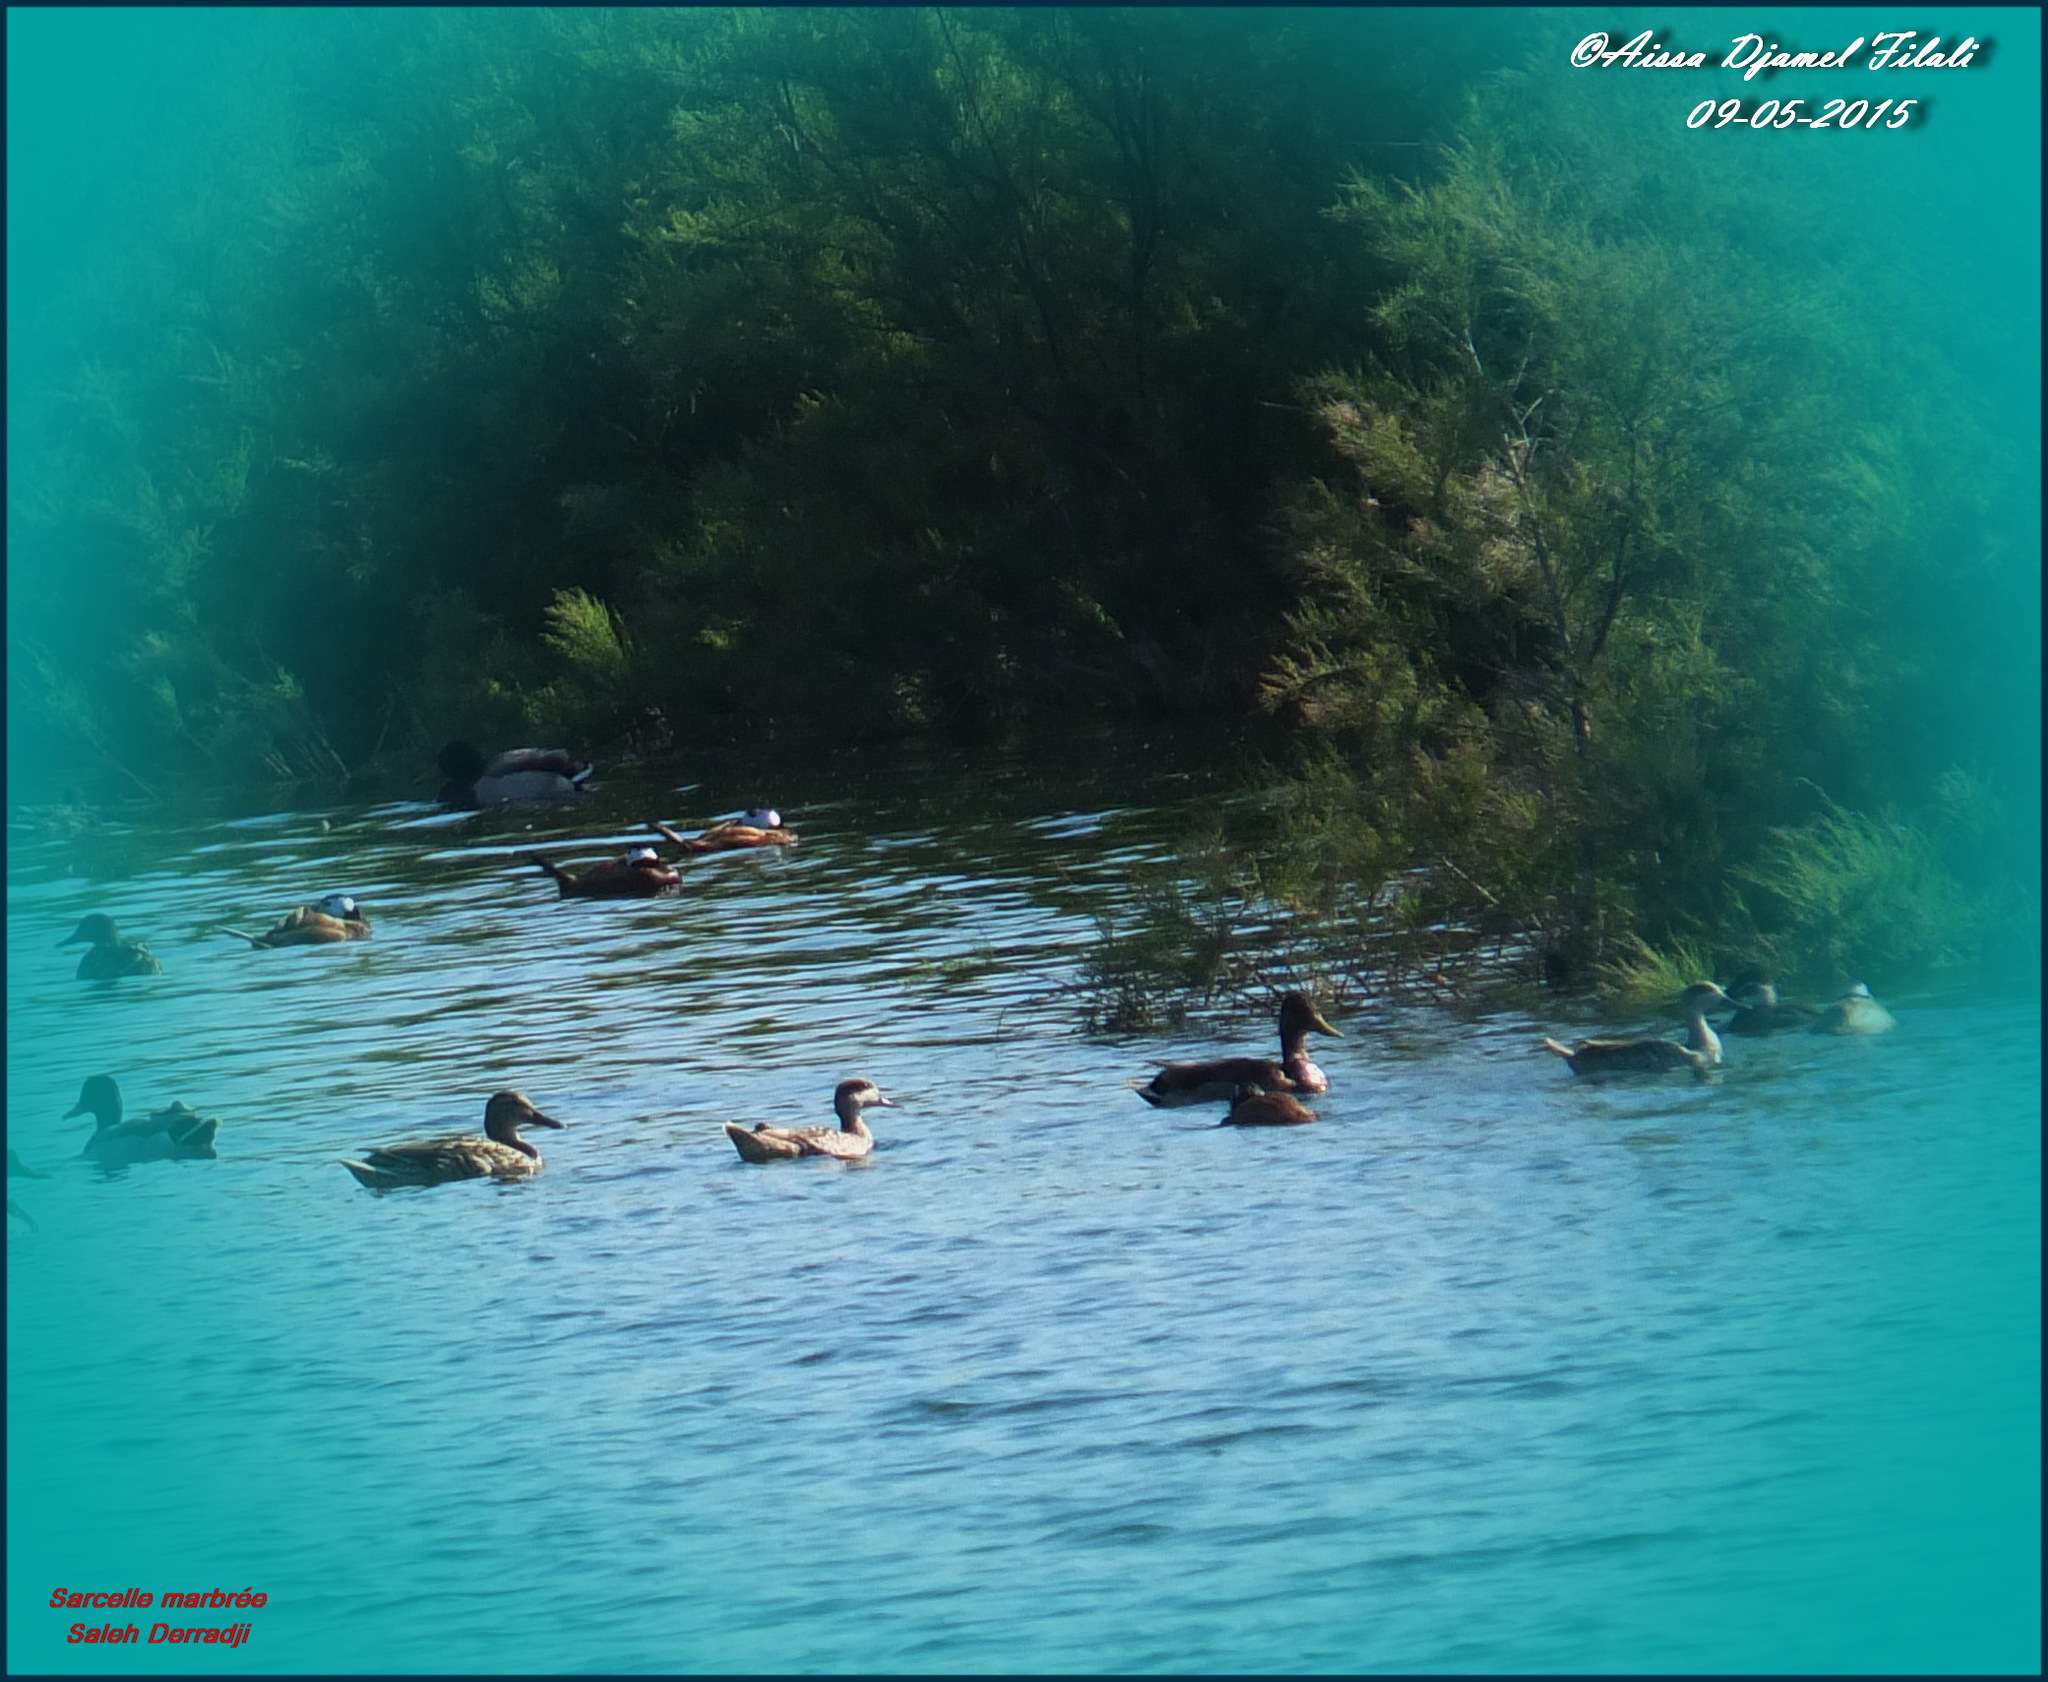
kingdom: Animalia
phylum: Chordata
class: Aves
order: Anseriformes
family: Anatidae
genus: Marmaronetta
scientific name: Marmaronetta angustirostris
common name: Marbled duck
